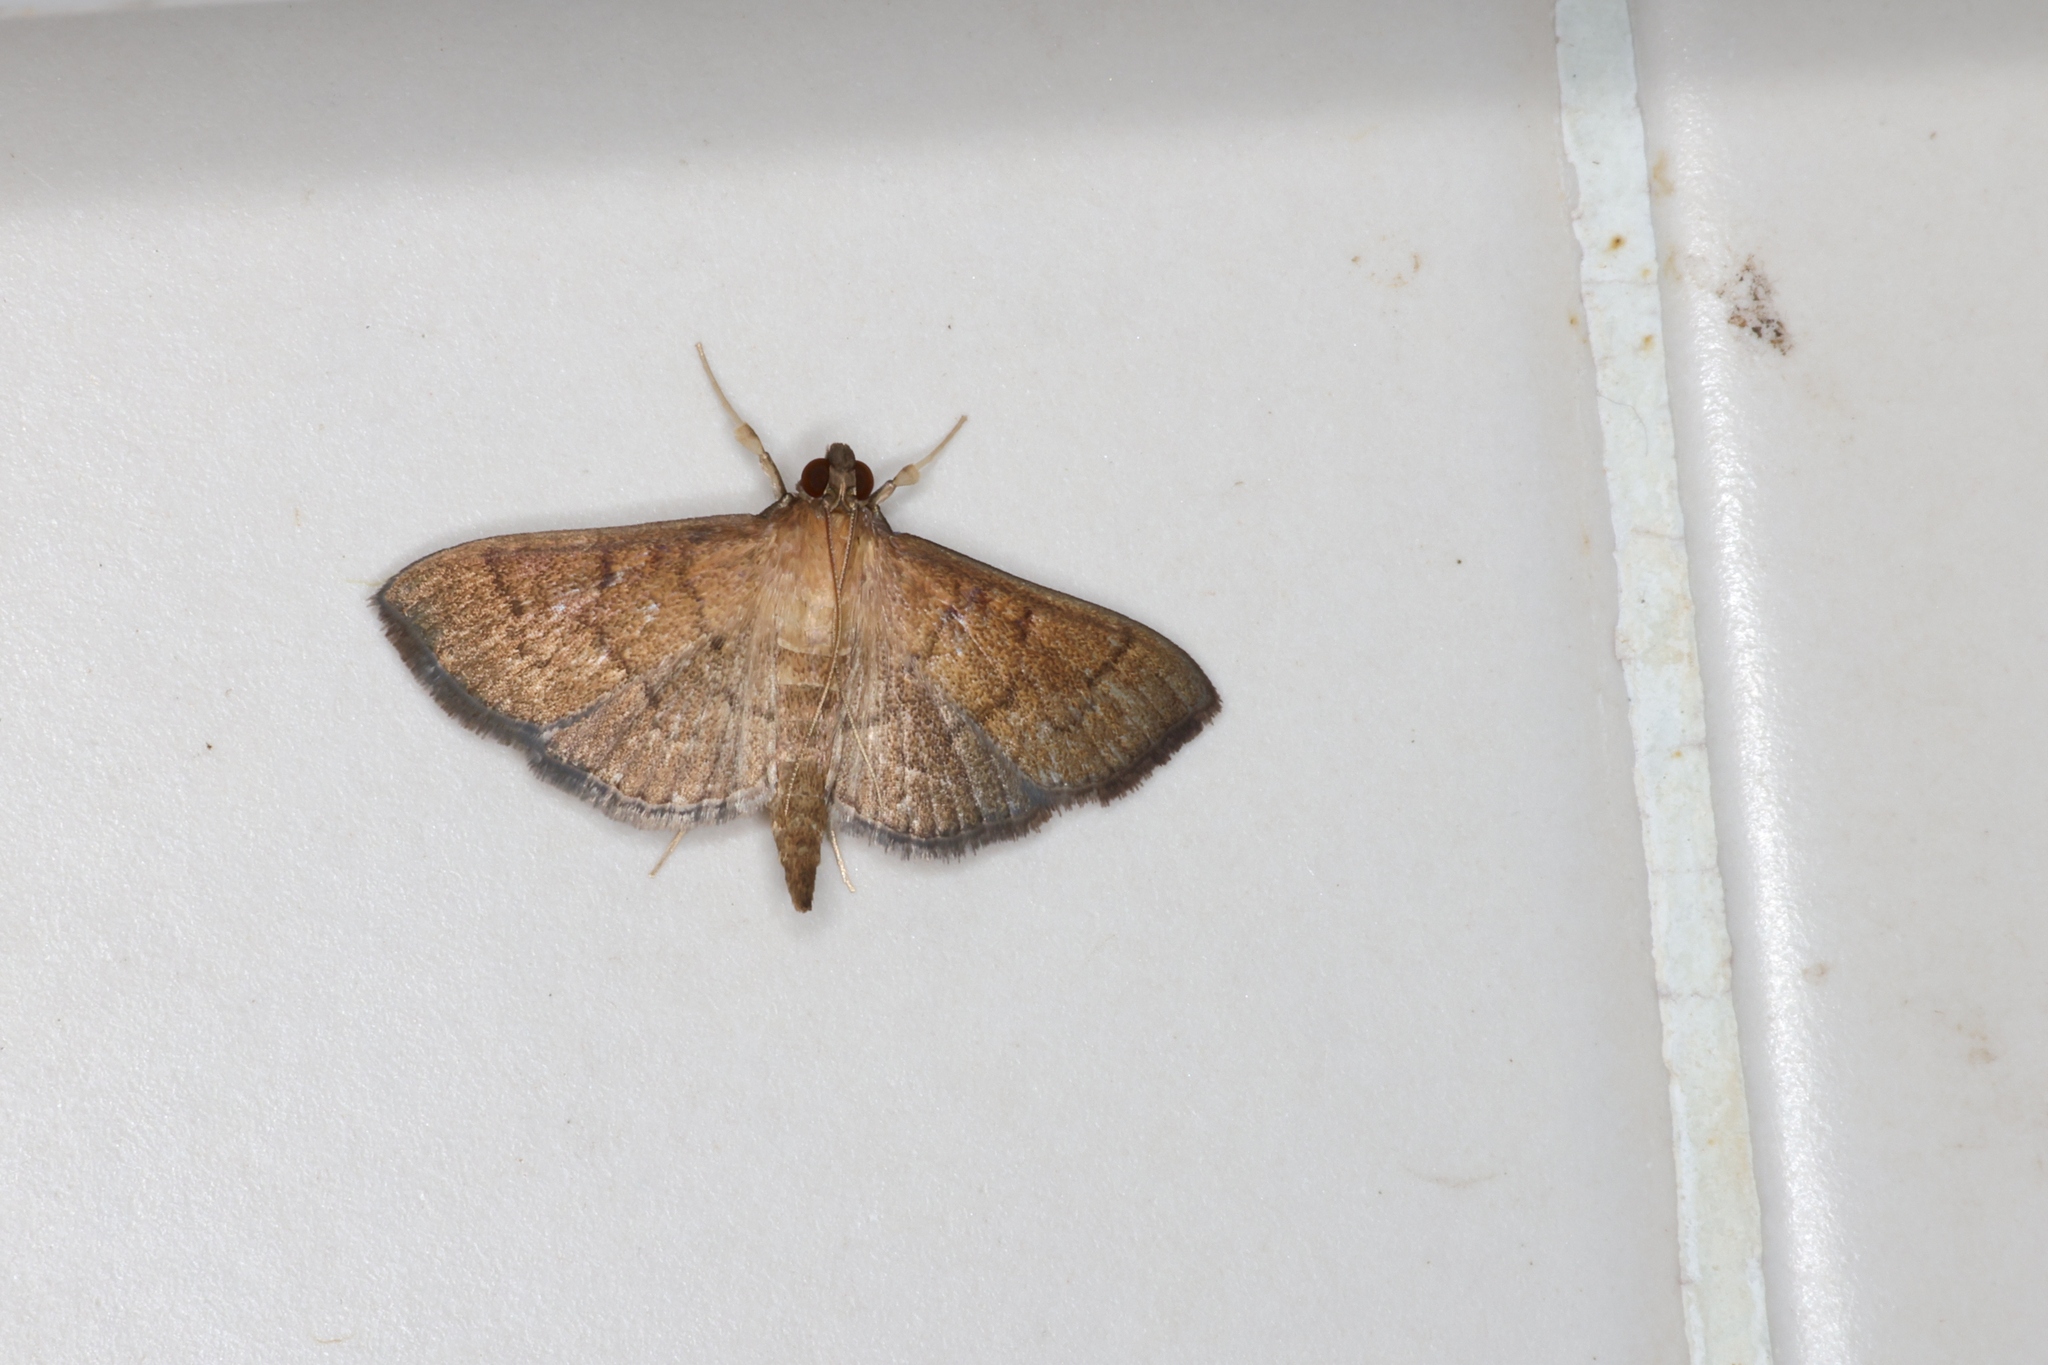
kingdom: Animalia
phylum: Arthropoda
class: Insecta
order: Lepidoptera
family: Crambidae
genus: Herpetogramma
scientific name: Herpetogramma licarsisalis
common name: Grass webworm
